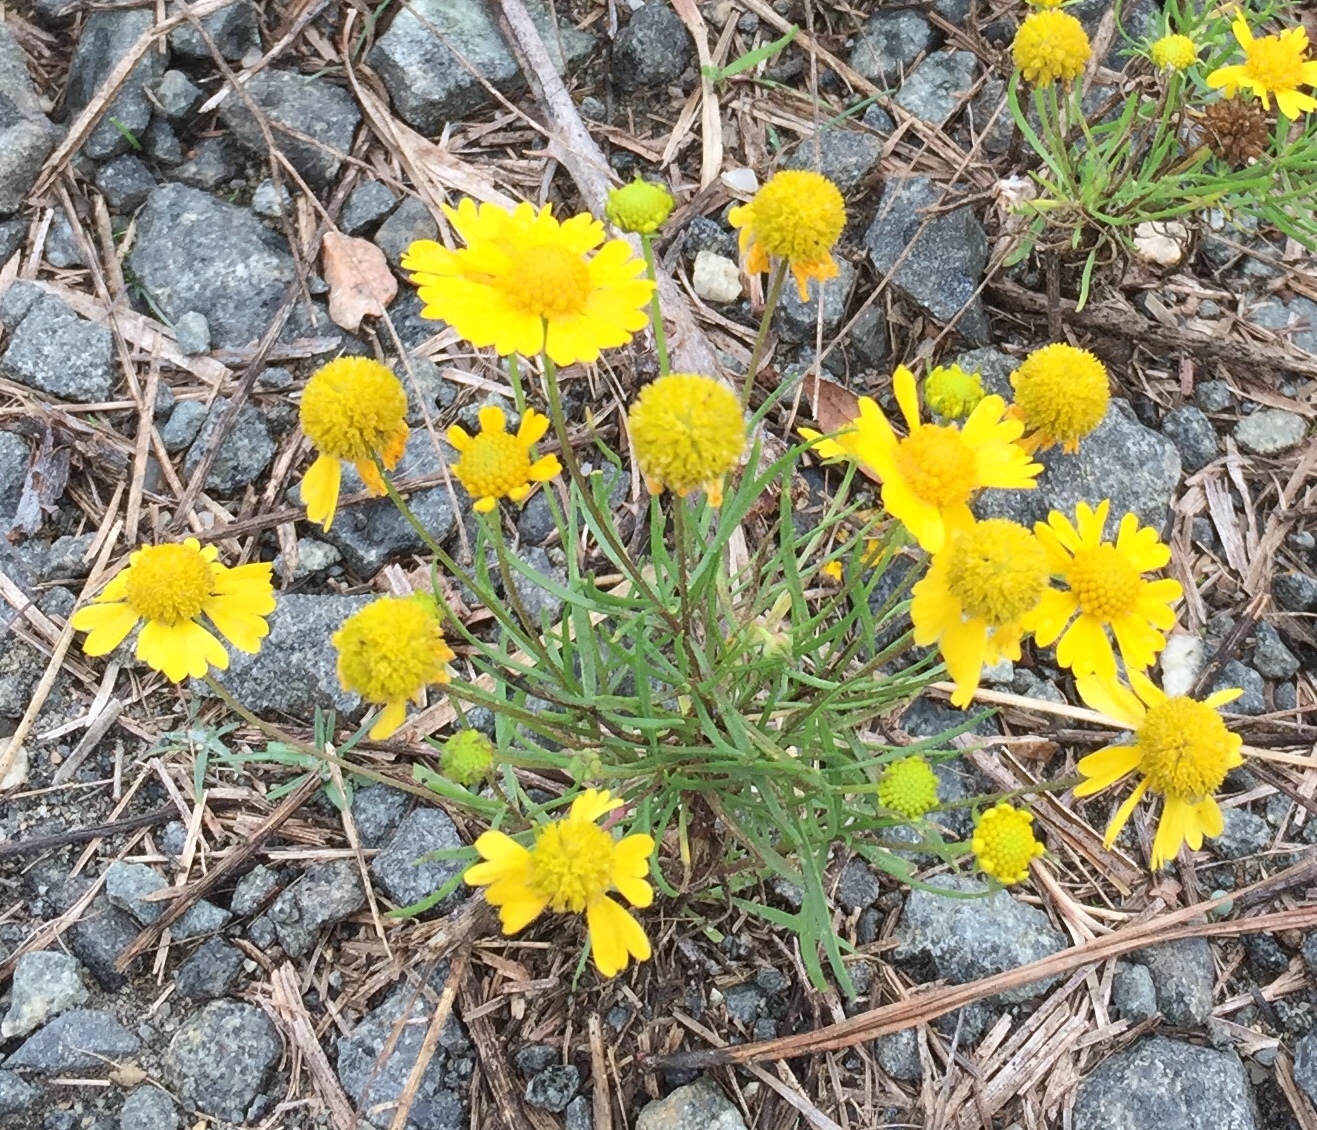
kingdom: Plantae
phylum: Tracheophyta
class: Magnoliopsida
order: Asterales
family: Asteraceae
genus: Helenium
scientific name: Helenium amarum
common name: Bitter sneezeweed
